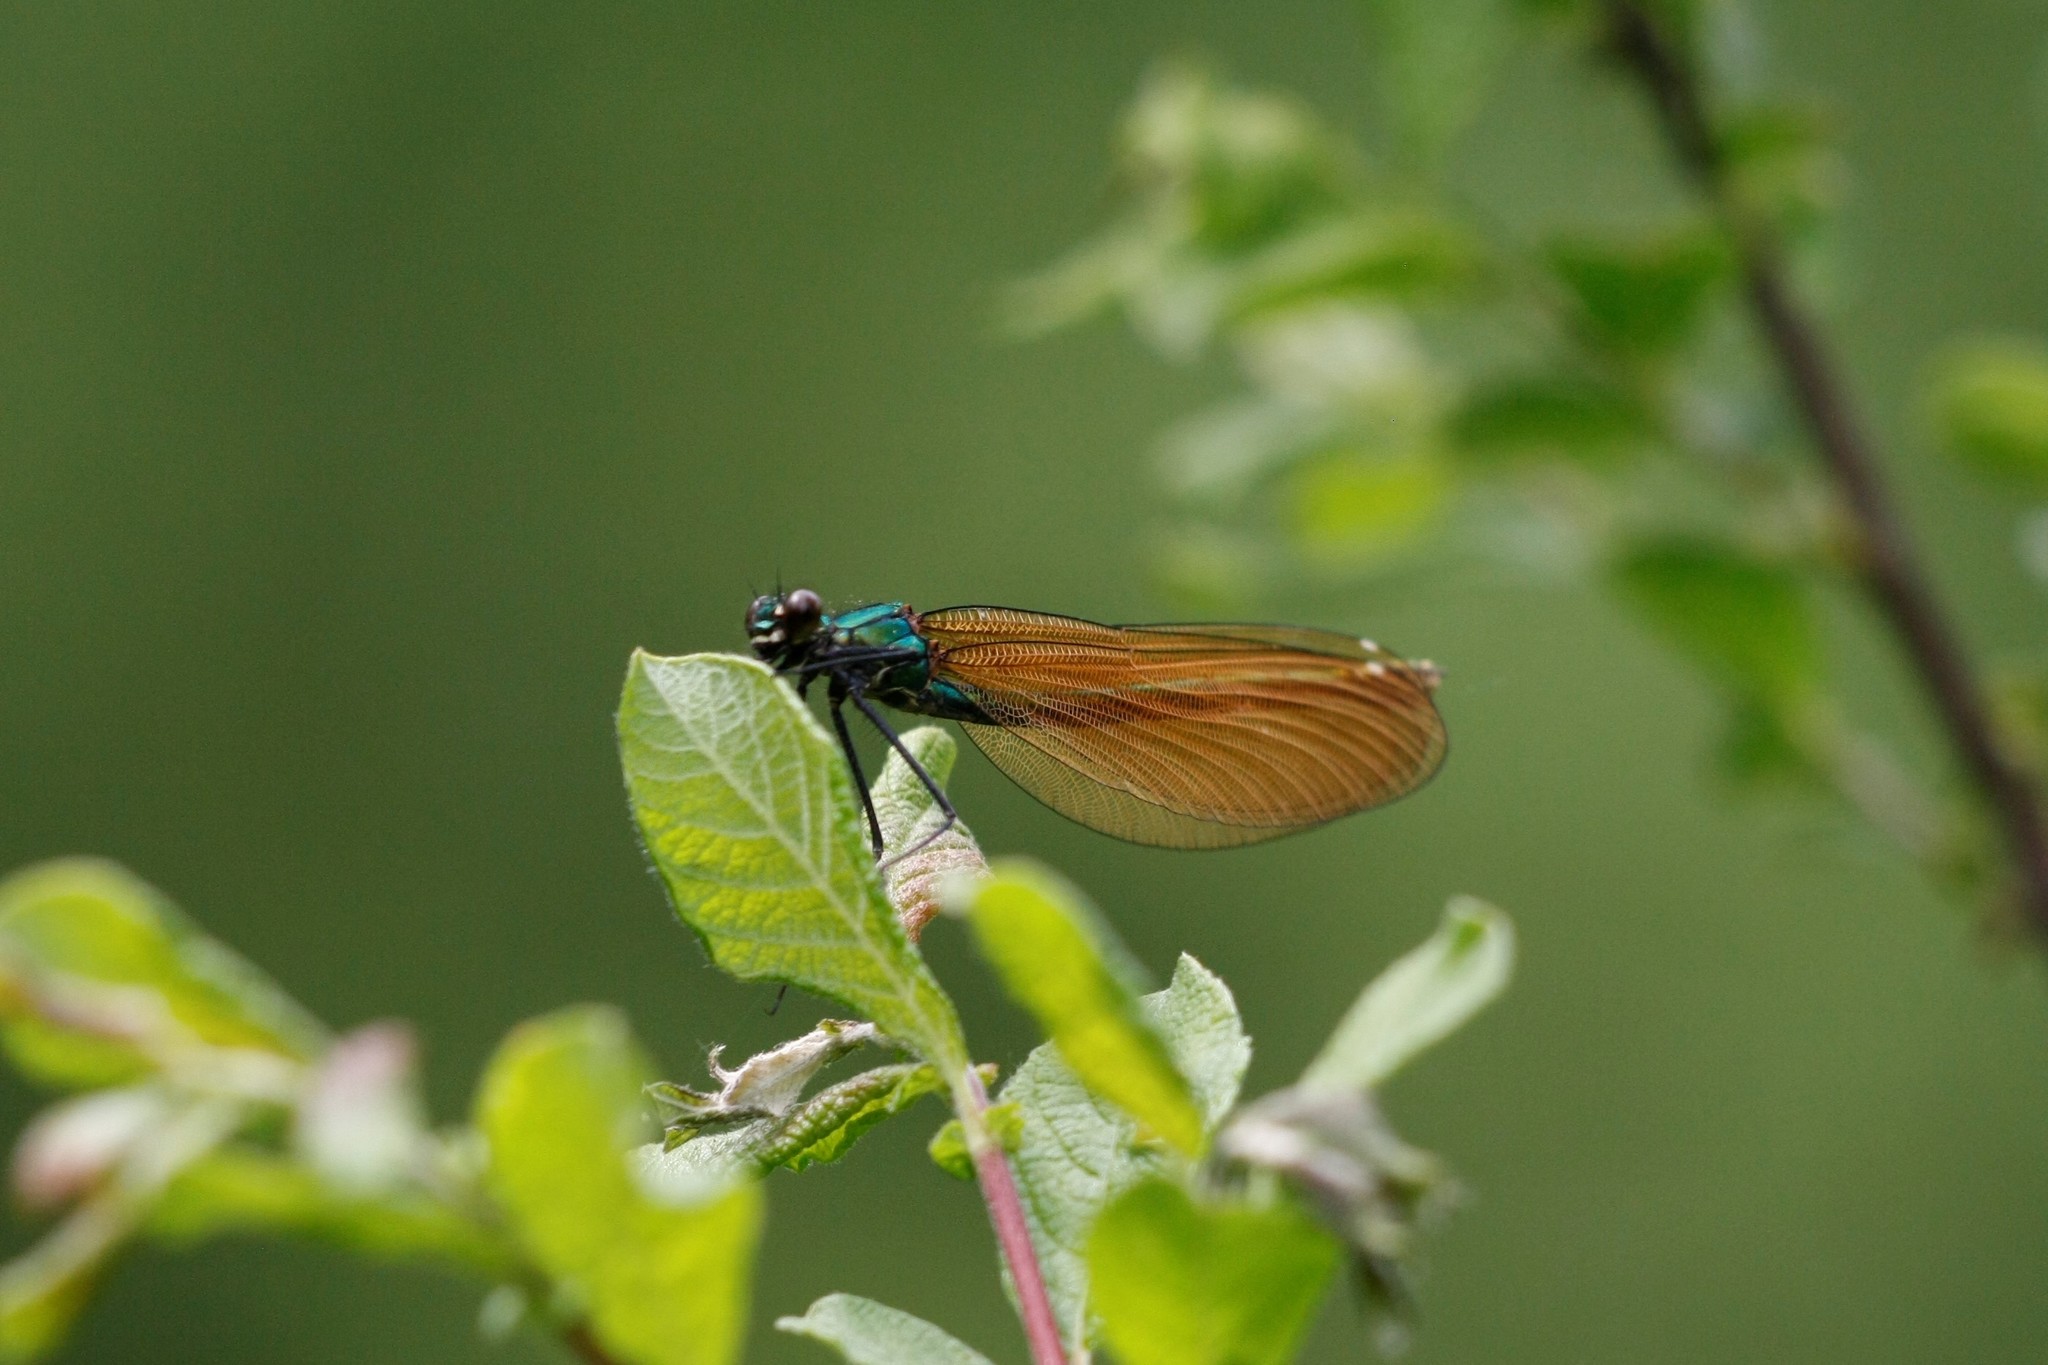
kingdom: Animalia
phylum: Arthropoda
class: Insecta
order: Odonata
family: Calopterygidae
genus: Calopteryx
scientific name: Calopteryx virgo
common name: Beautiful demoiselle
